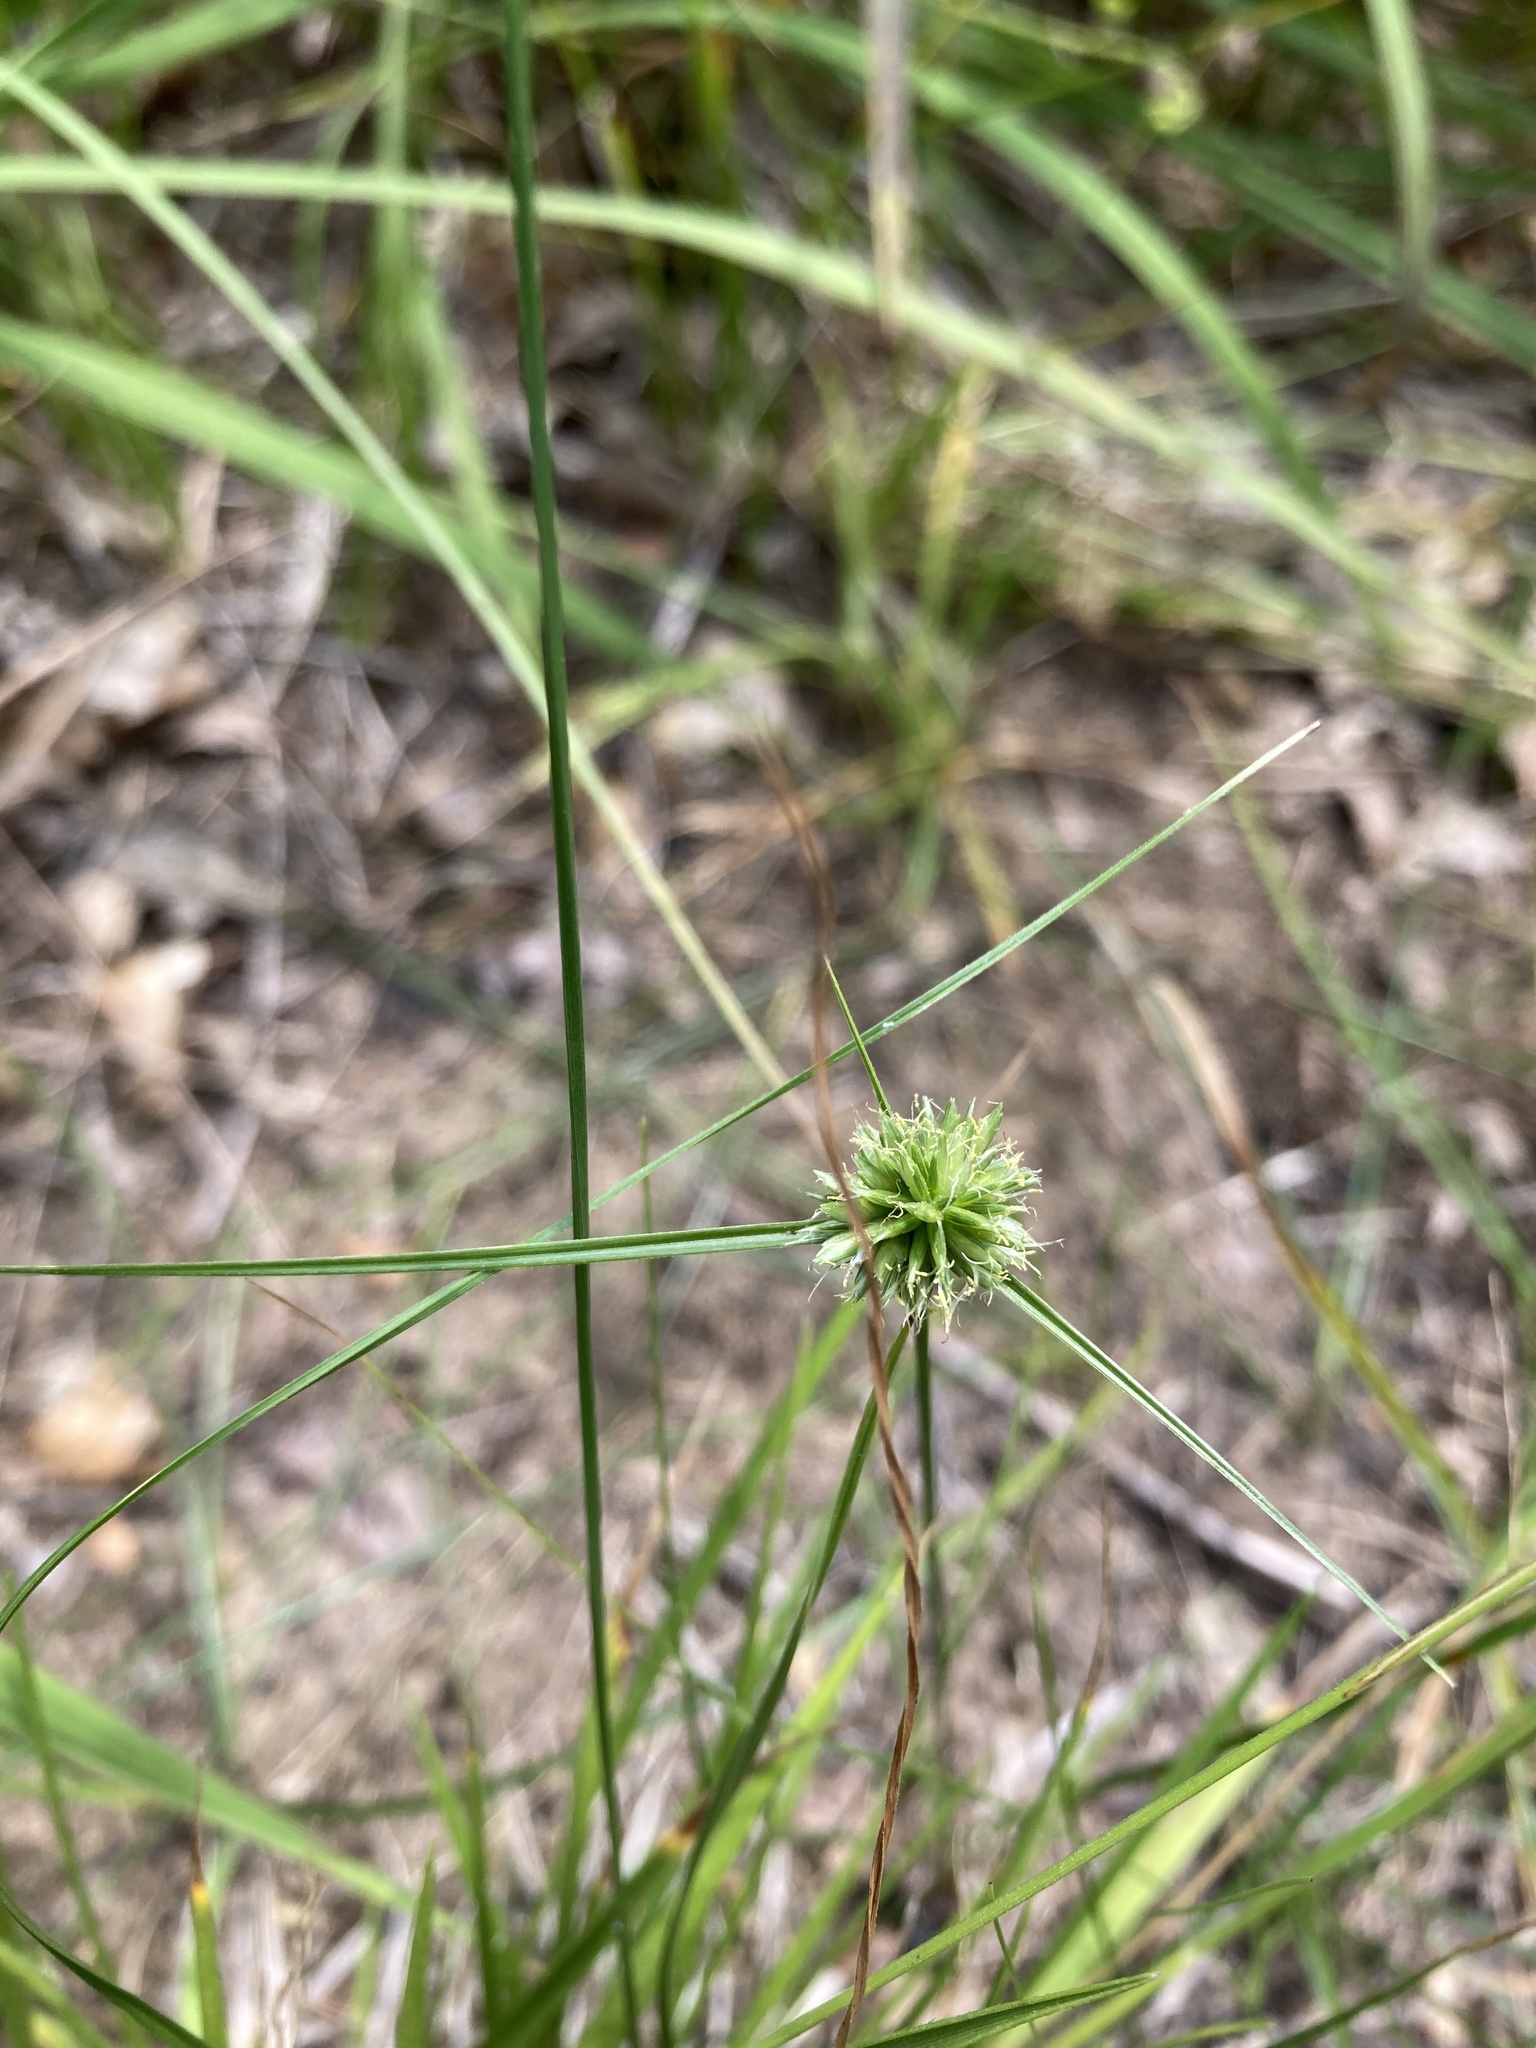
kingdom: Plantae
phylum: Tracheophyta
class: Liliopsida
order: Poales
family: Cyperaceae
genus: Cyperus
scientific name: Cyperus lupulinus
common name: Great plains flatsedge
